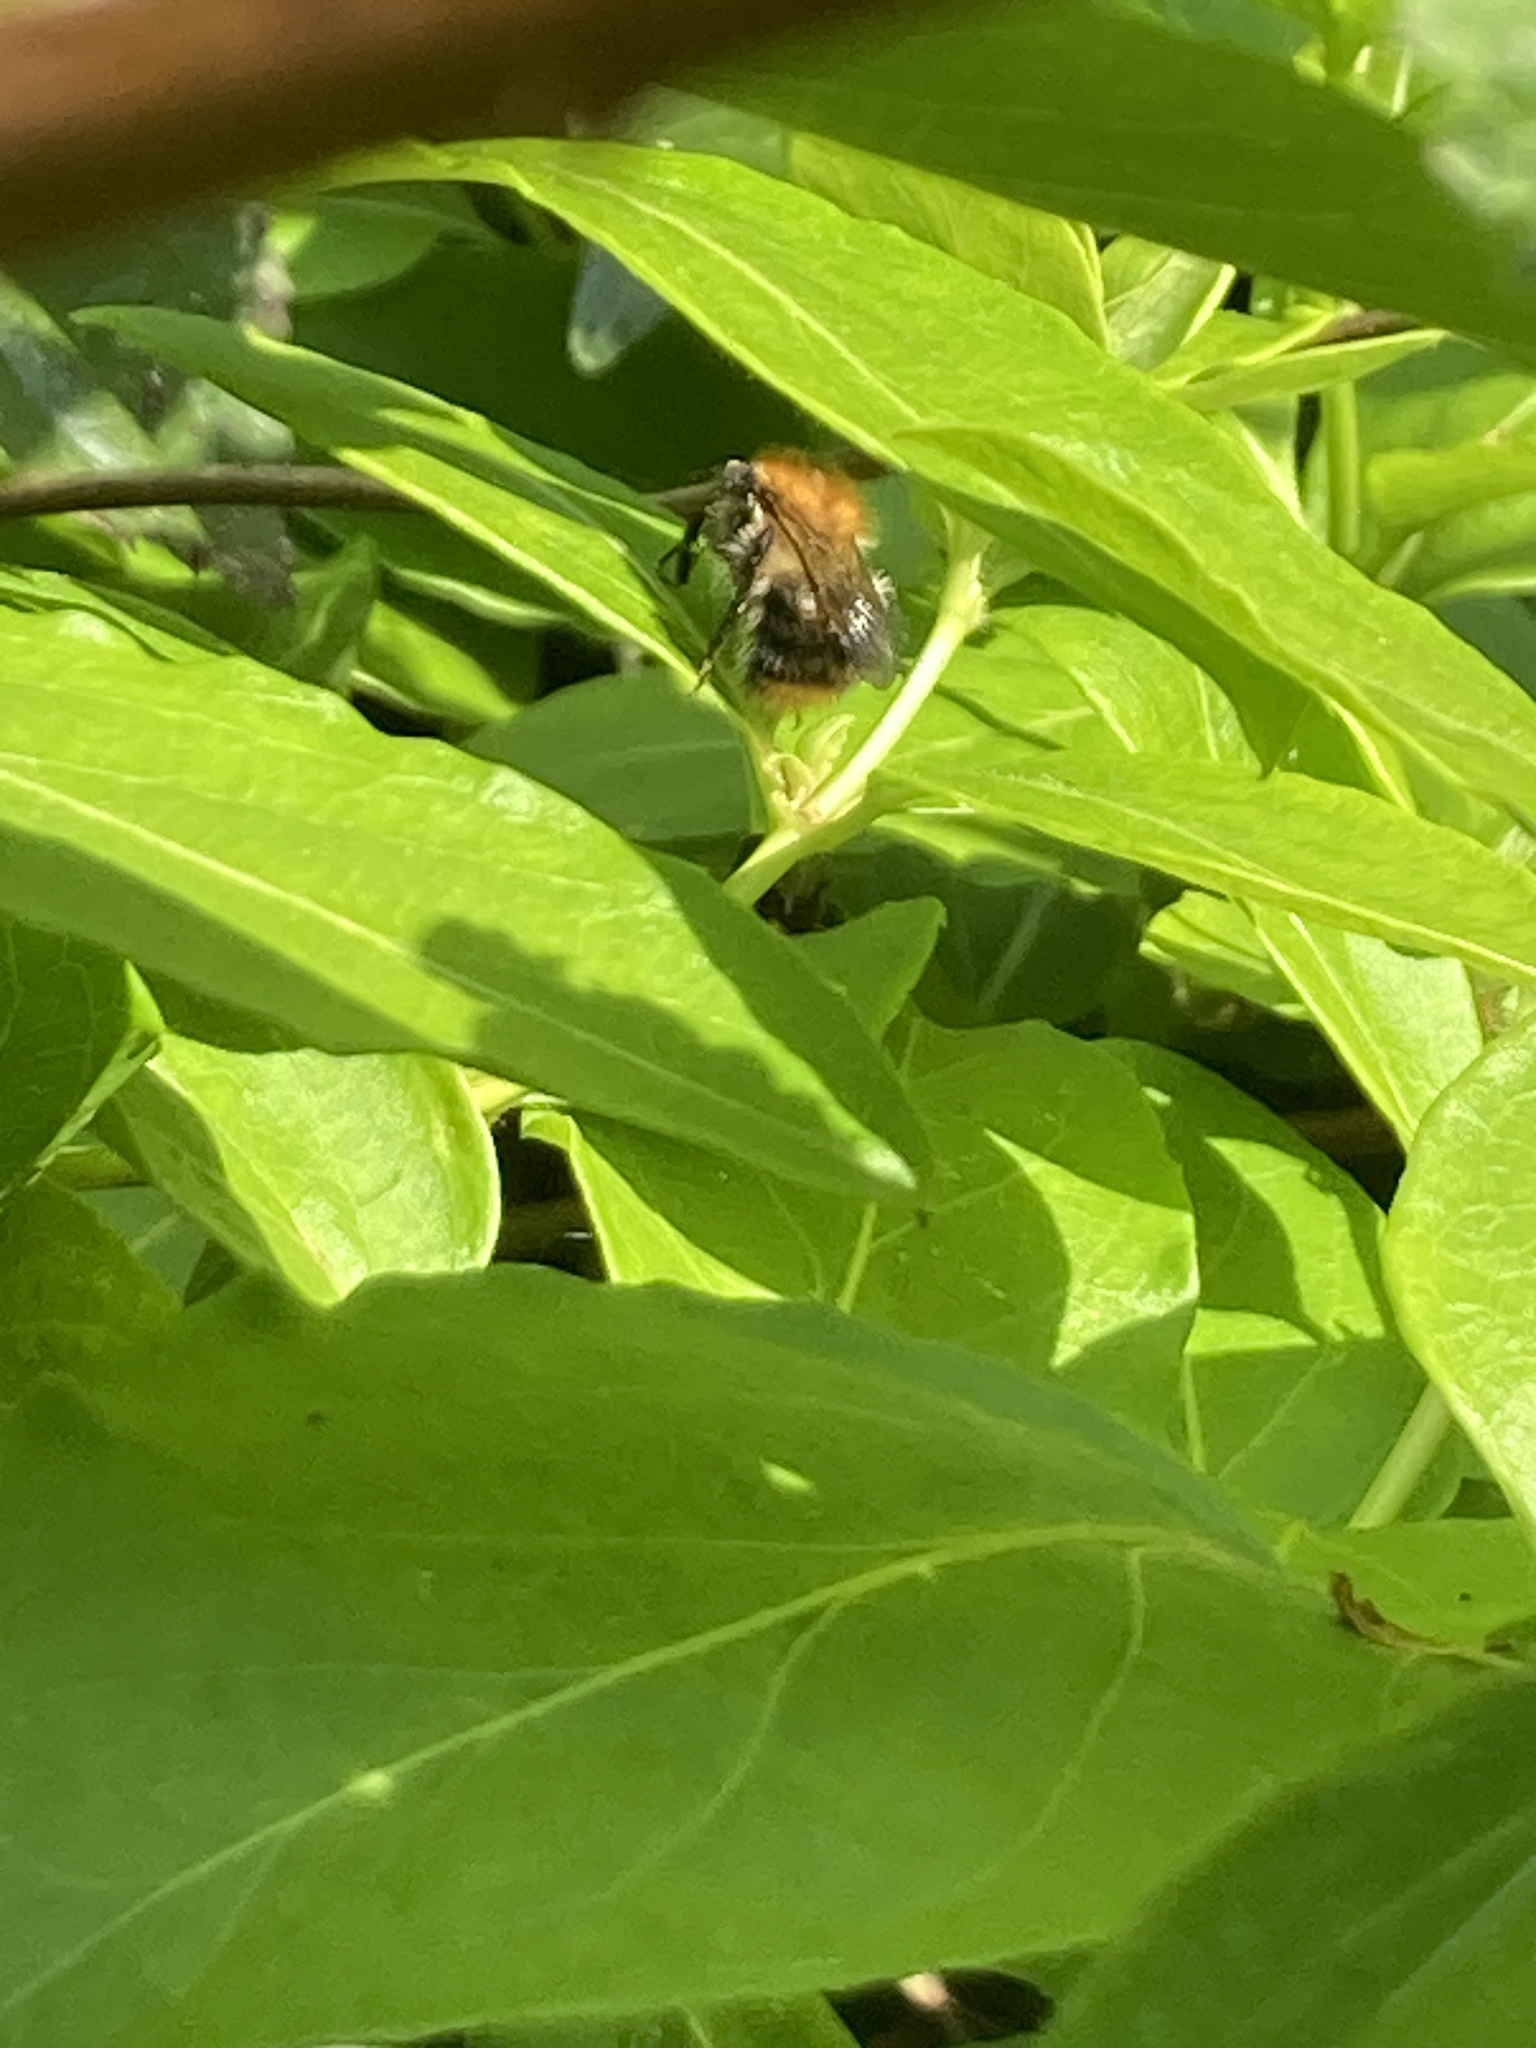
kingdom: Animalia
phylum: Arthropoda
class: Insecta
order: Hymenoptera
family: Apidae
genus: Bombus
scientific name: Bombus pascuorum
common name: Common carder bee
